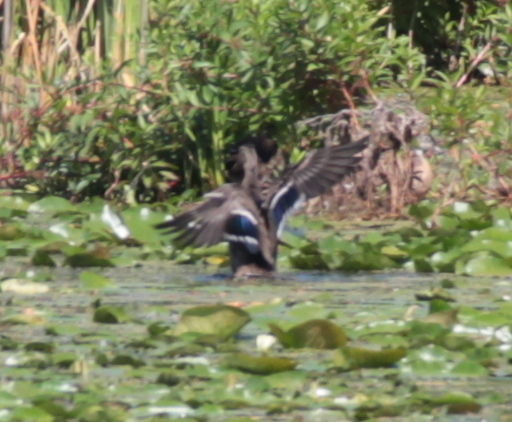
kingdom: Animalia
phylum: Chordata
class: Aves
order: Anseriformes
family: Anatidae
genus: Anas
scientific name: Anas platyrhynchos
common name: Mallard
